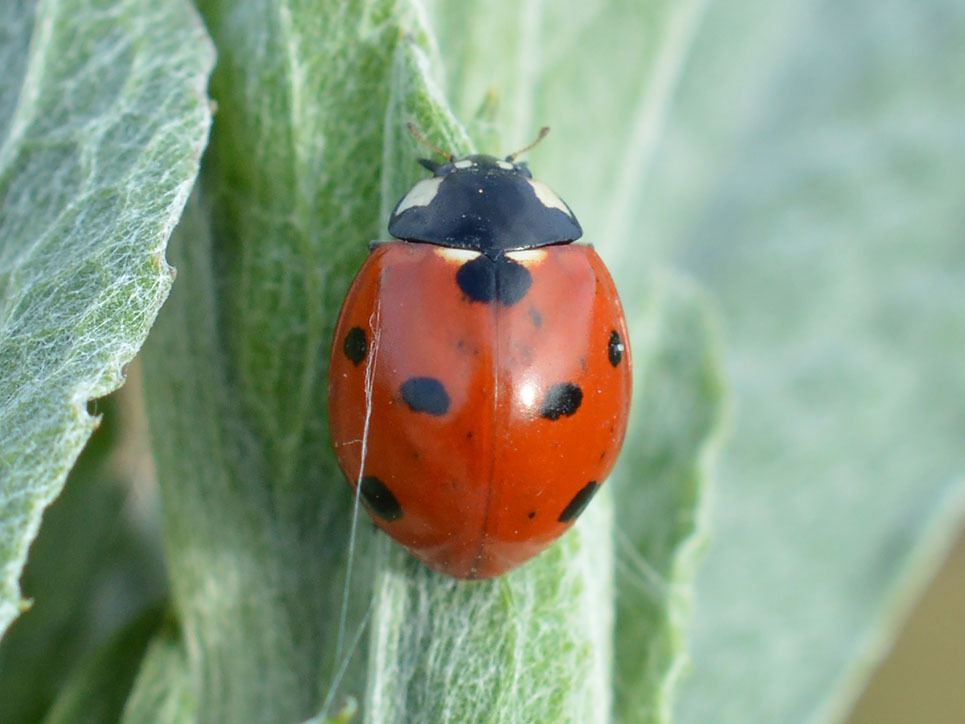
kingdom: Animalia
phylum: Arthropoda
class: Insecta
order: Coleoptera
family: Coccinellidae
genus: Coccinella
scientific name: Coccinella septempunctata
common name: Sevenspotted lady beetle
